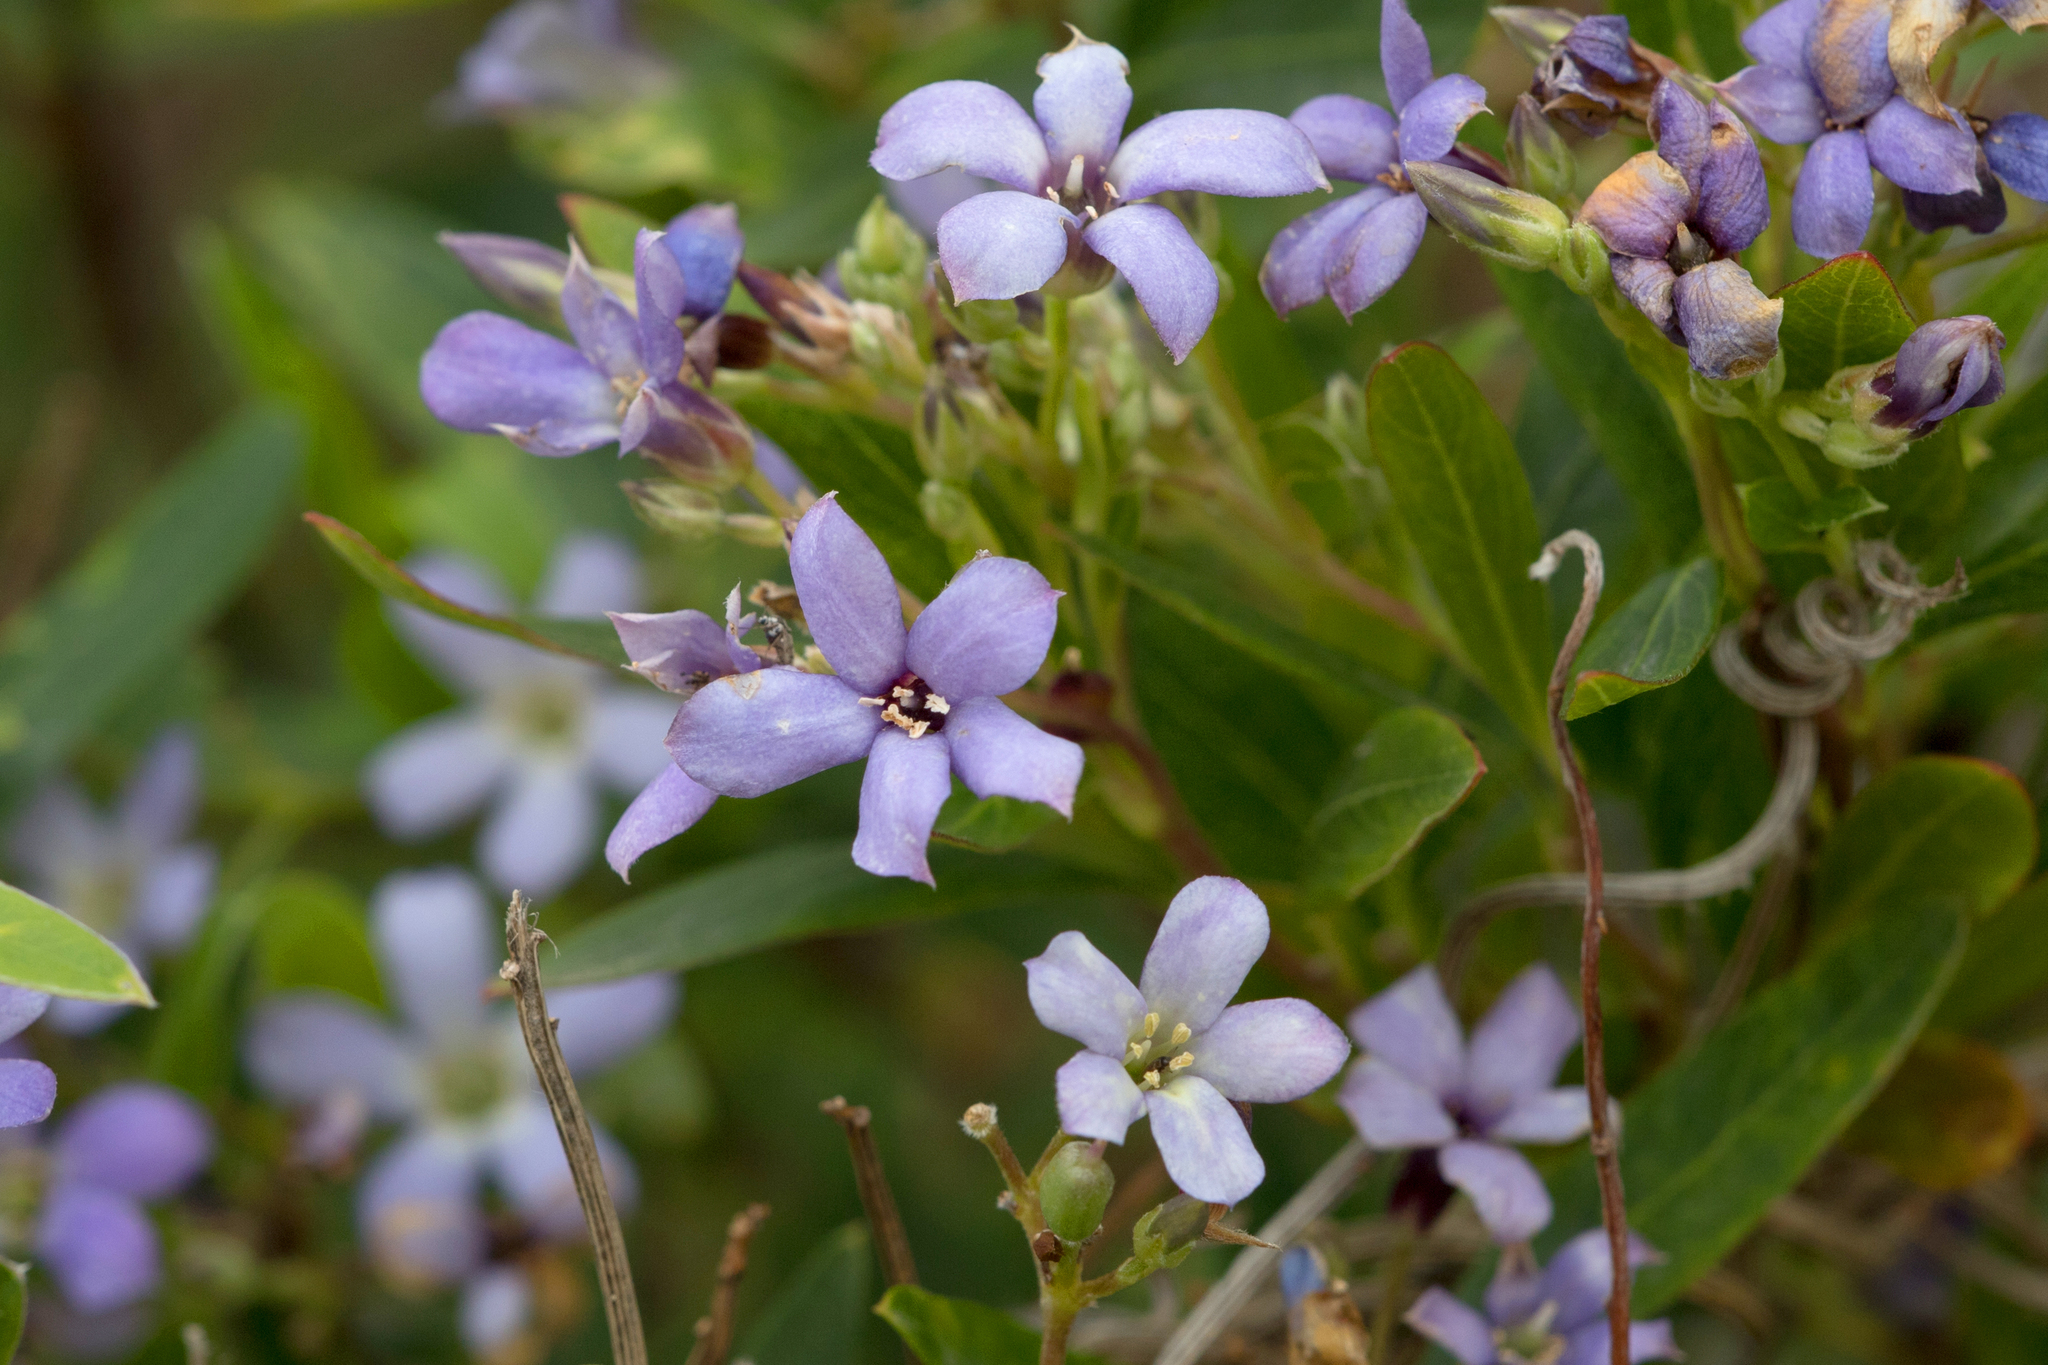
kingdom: Plantae
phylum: Tracheophyta
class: Magnoliopsida
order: Apiales
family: Pittosporaceae
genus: Billardiera
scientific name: Billardiera cymosa
